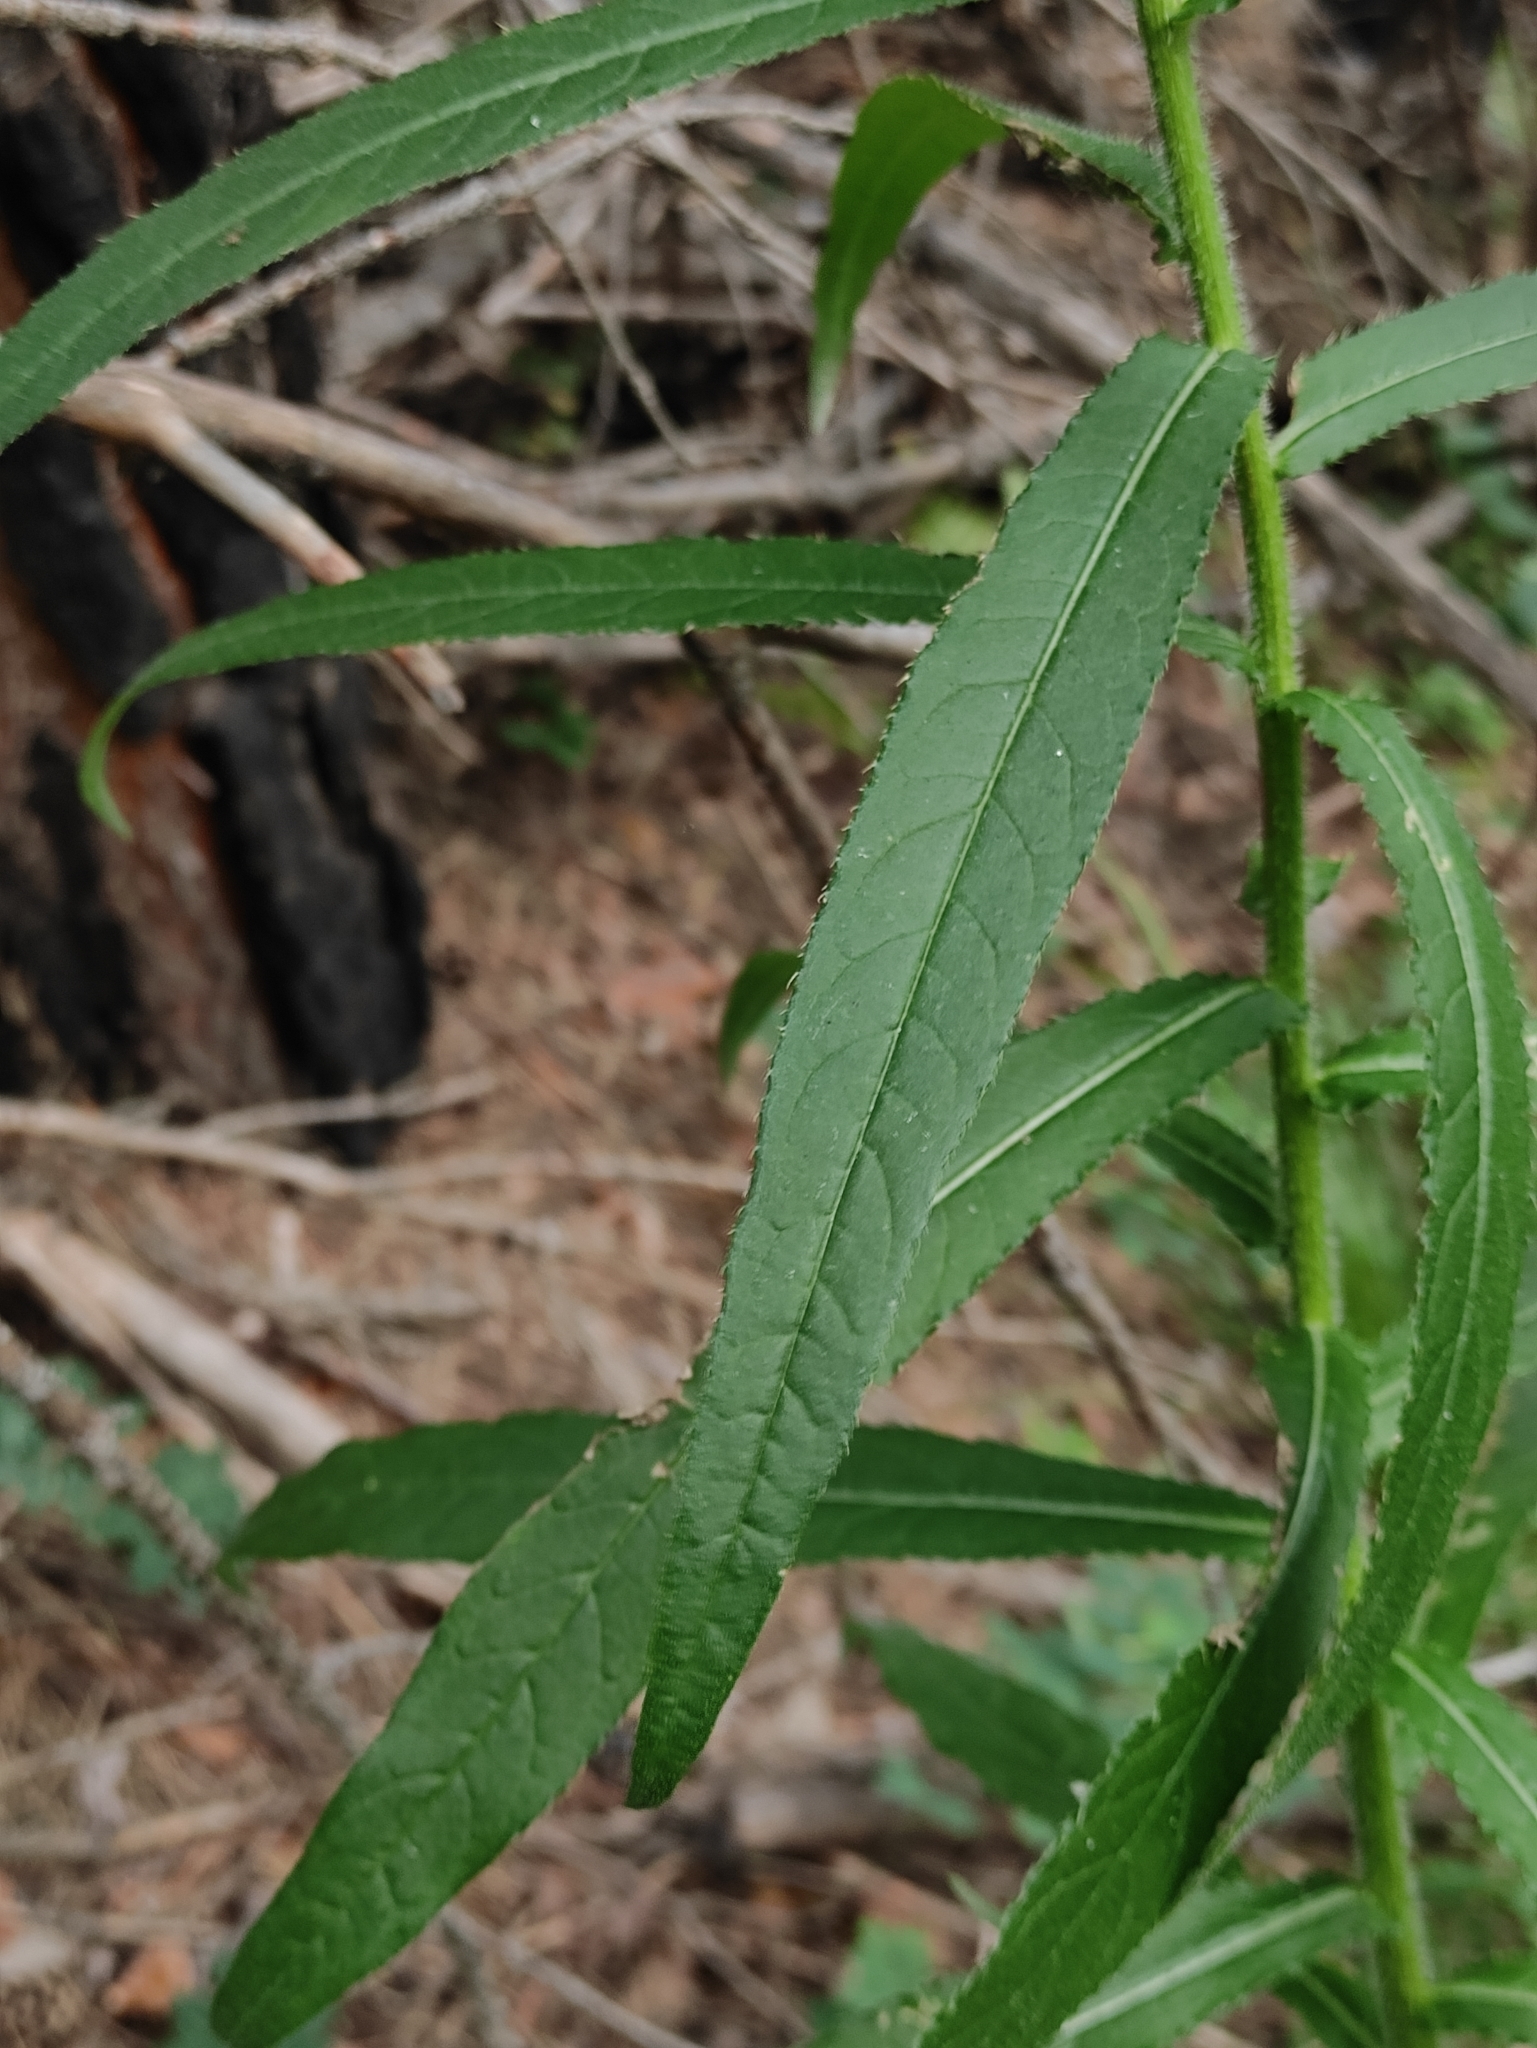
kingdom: Plantae
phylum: Tracheophyta
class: Magnoliopsida
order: Asterales
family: Asteraceae
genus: Cirsium
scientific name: Cirsium serratuloides
